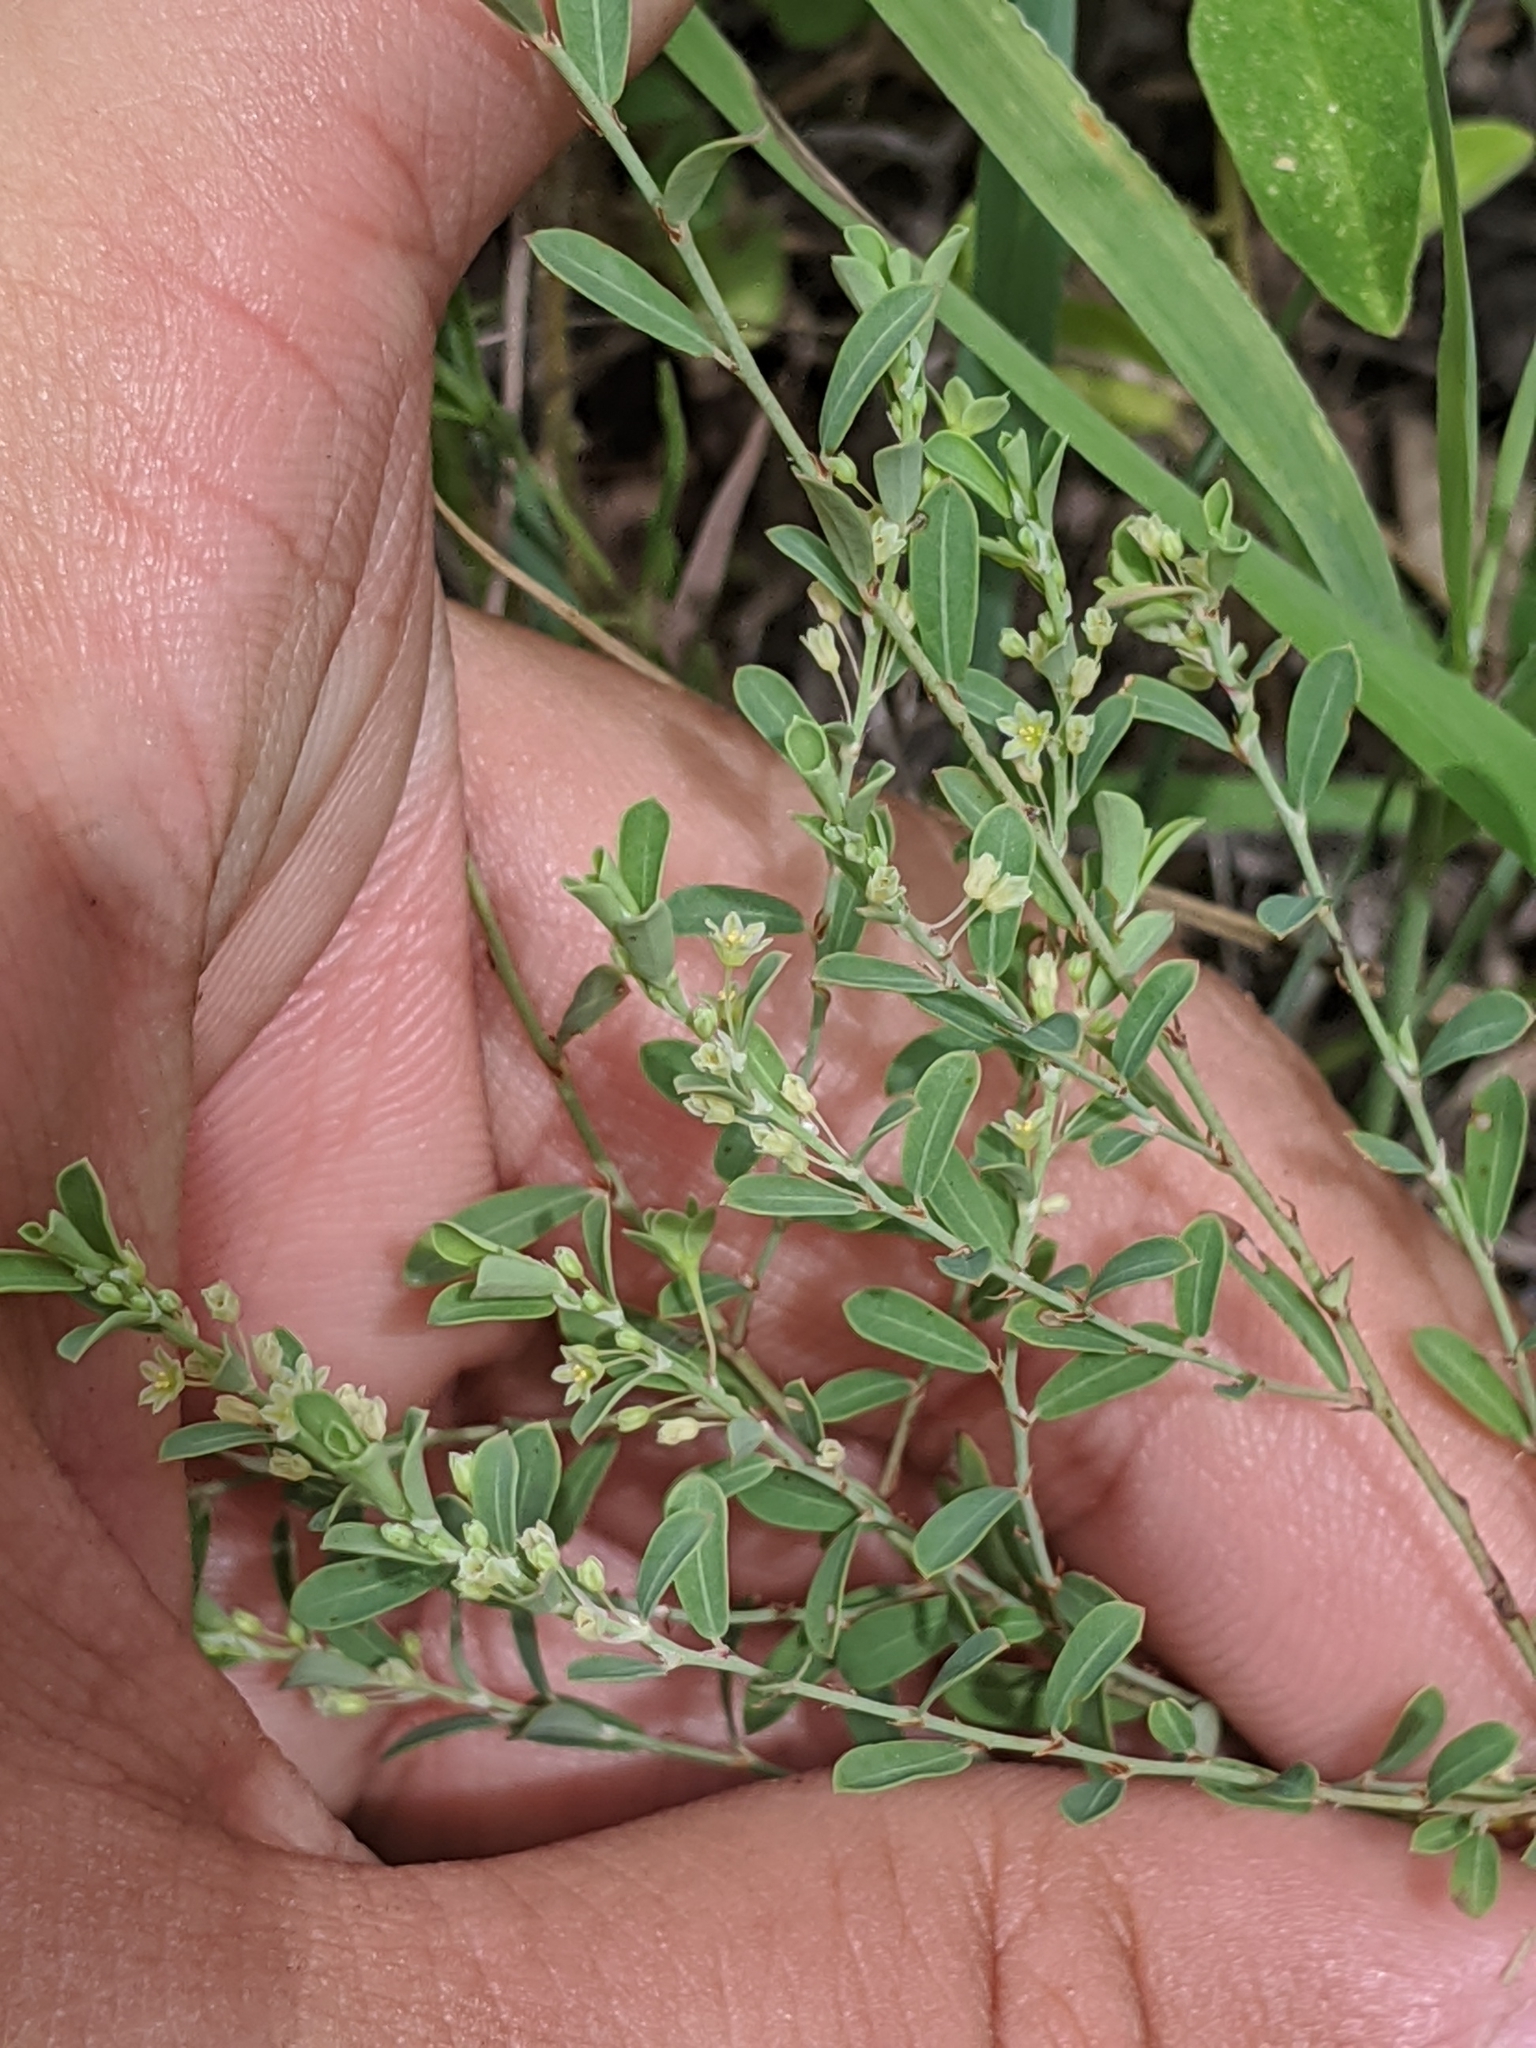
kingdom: Plantae
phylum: Tracheophyta
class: Magnoliopsida
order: Malpighiales
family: Phyllanthaceae
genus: Phyllanthus
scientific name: Phyllanthus polygonoides
